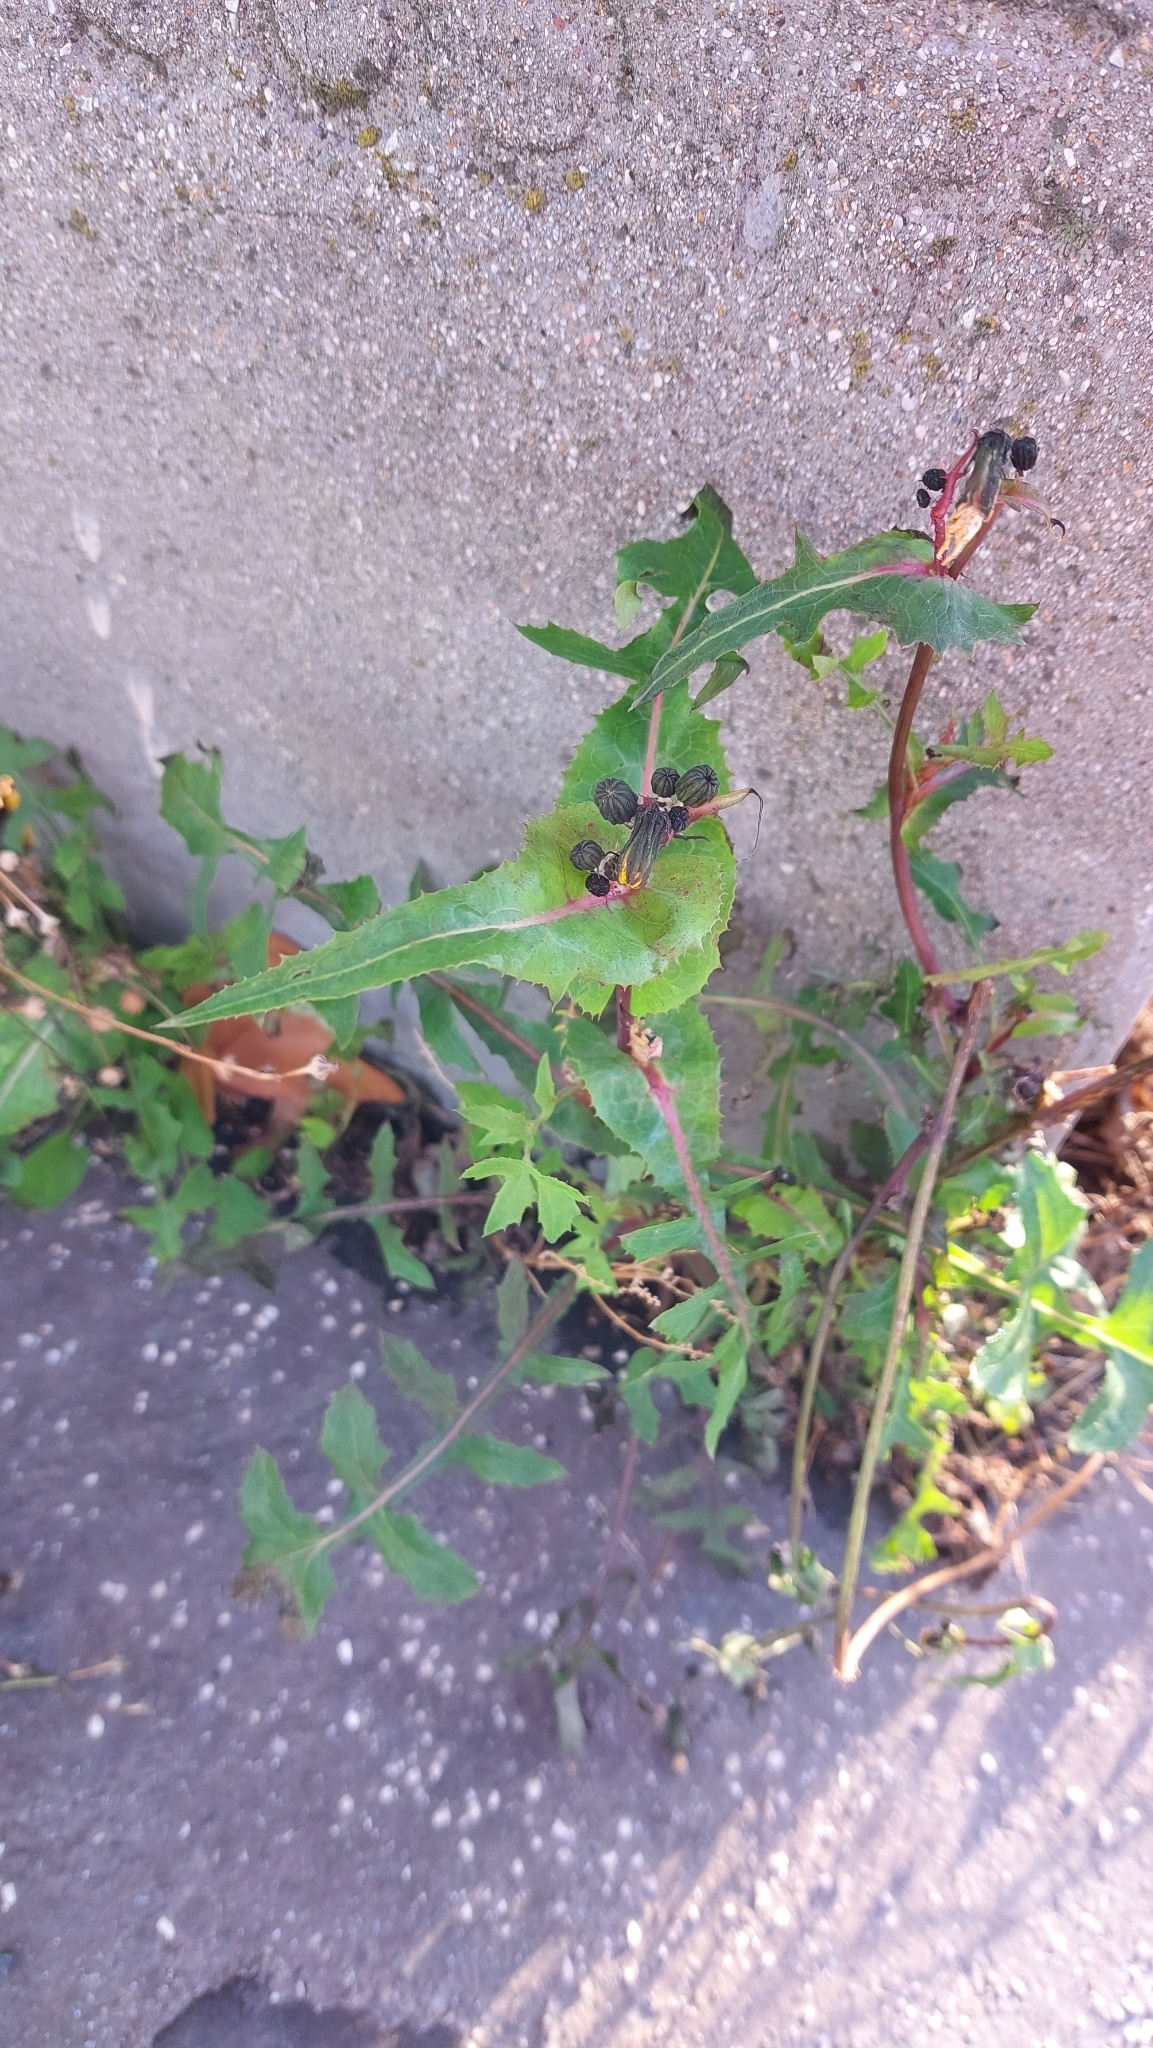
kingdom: Plantae
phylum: Tracheophyta
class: Magnoliopsida
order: Asterales
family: Asteraceae
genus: Sonchus
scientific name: Sonchus oleraceus
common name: Common sowthistle
